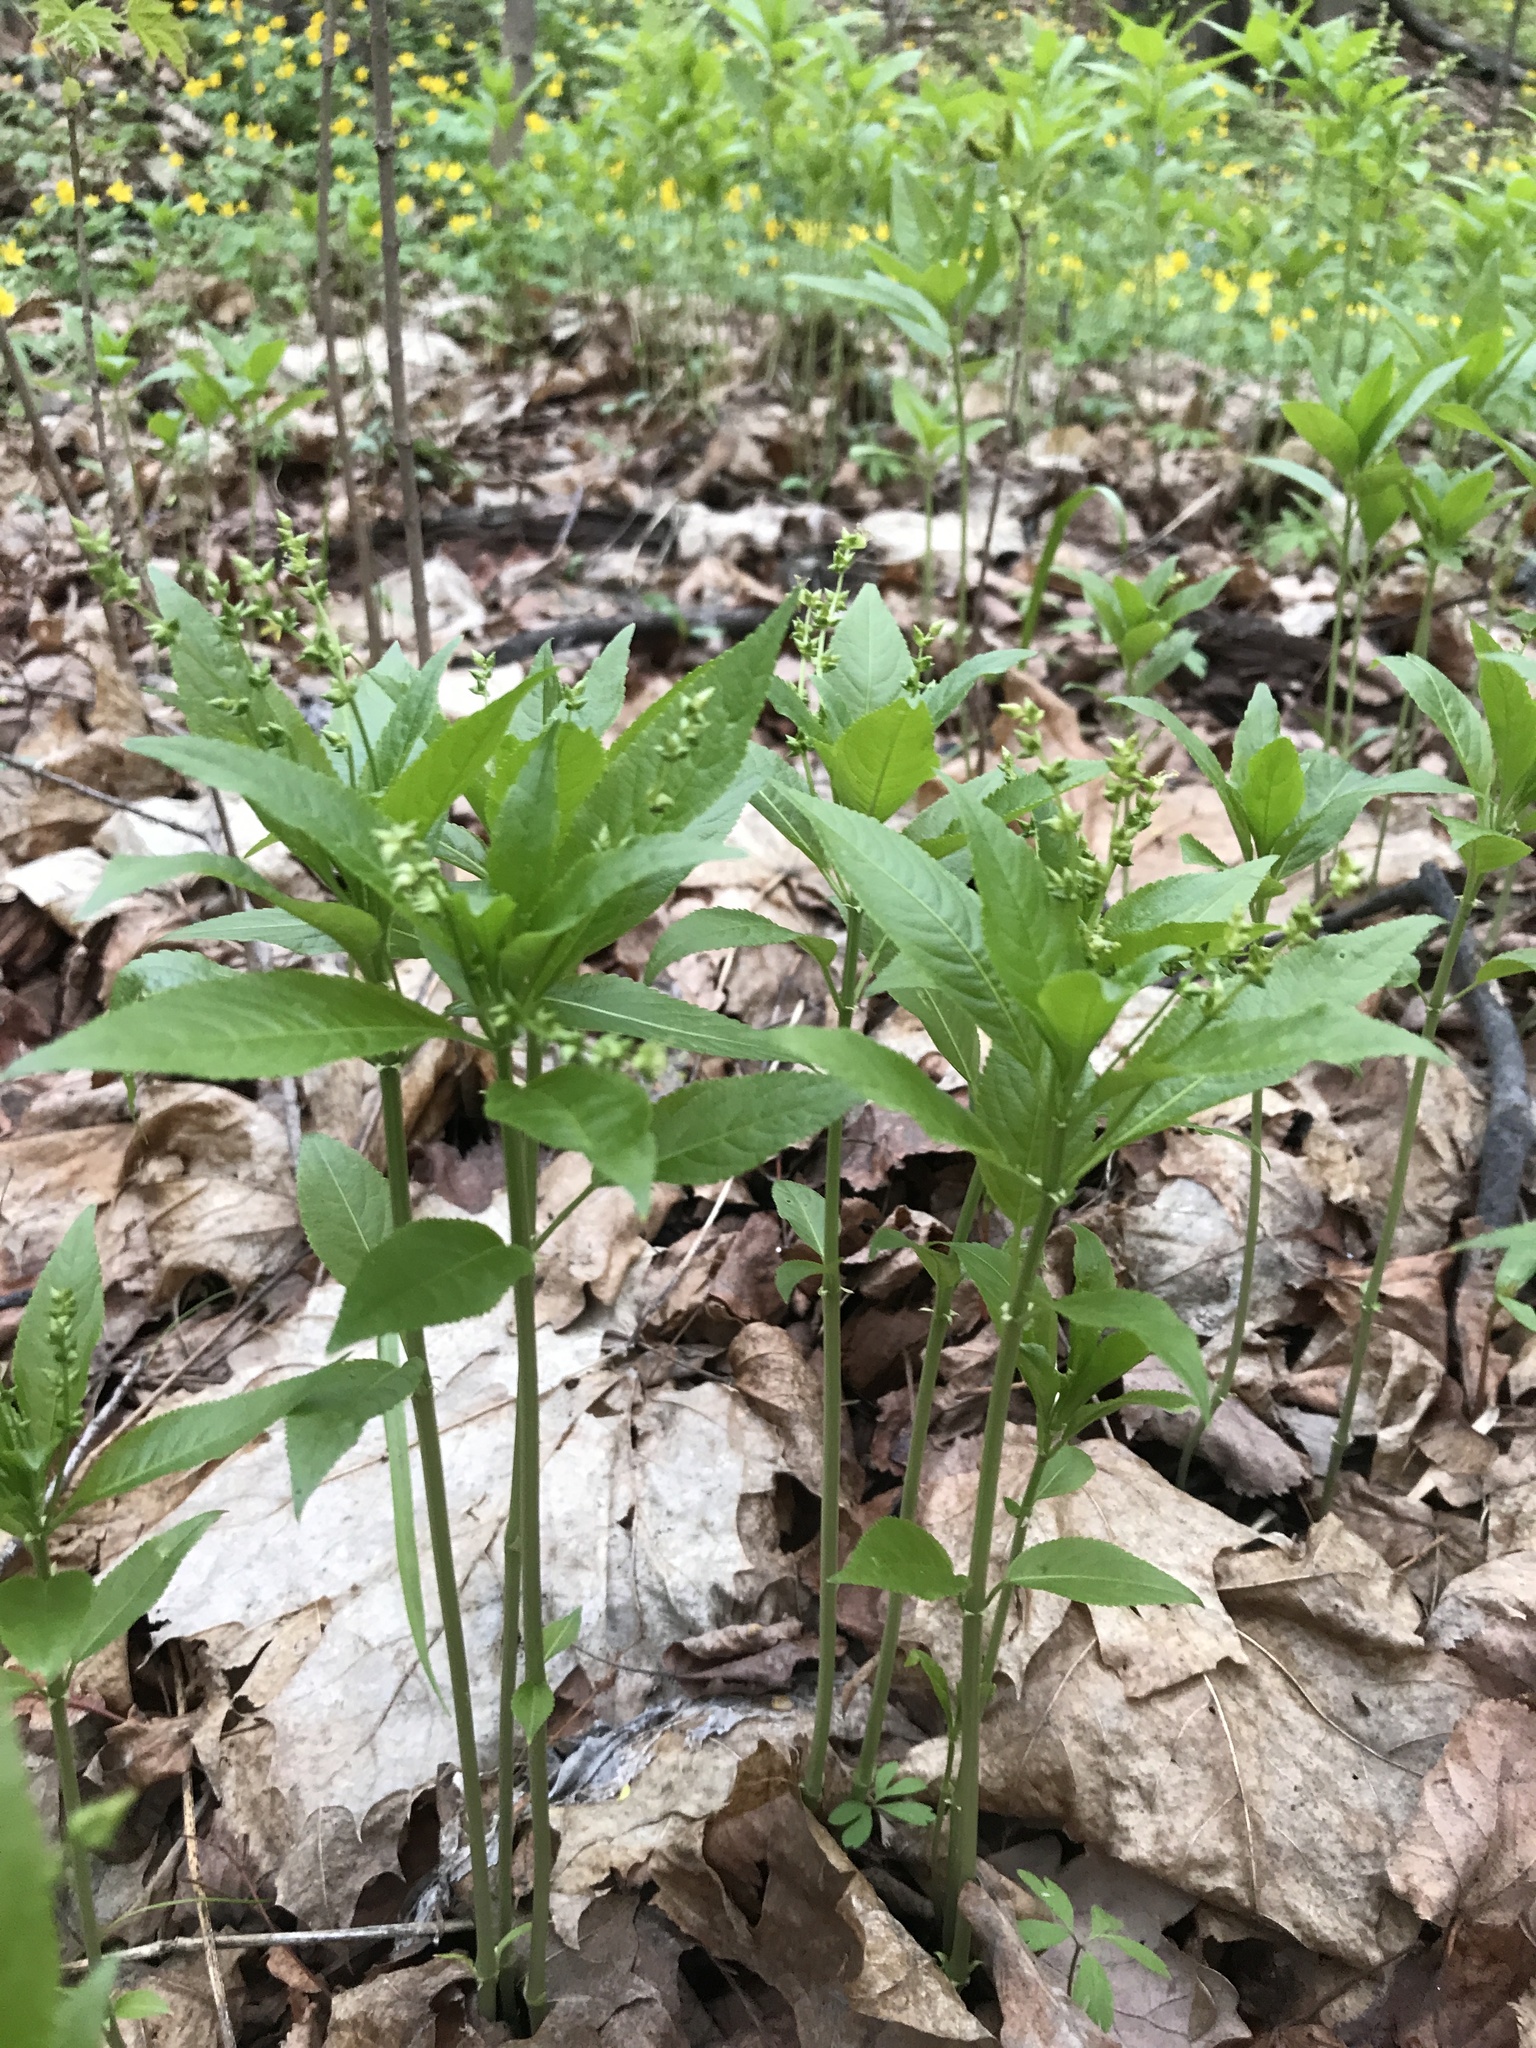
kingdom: Plantae
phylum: Tracheophyta
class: Magnoliopsida
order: Malpighiales
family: Euphorbiaceae
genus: Mercurialis
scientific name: Mercurialis perennis
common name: Dog mercury
